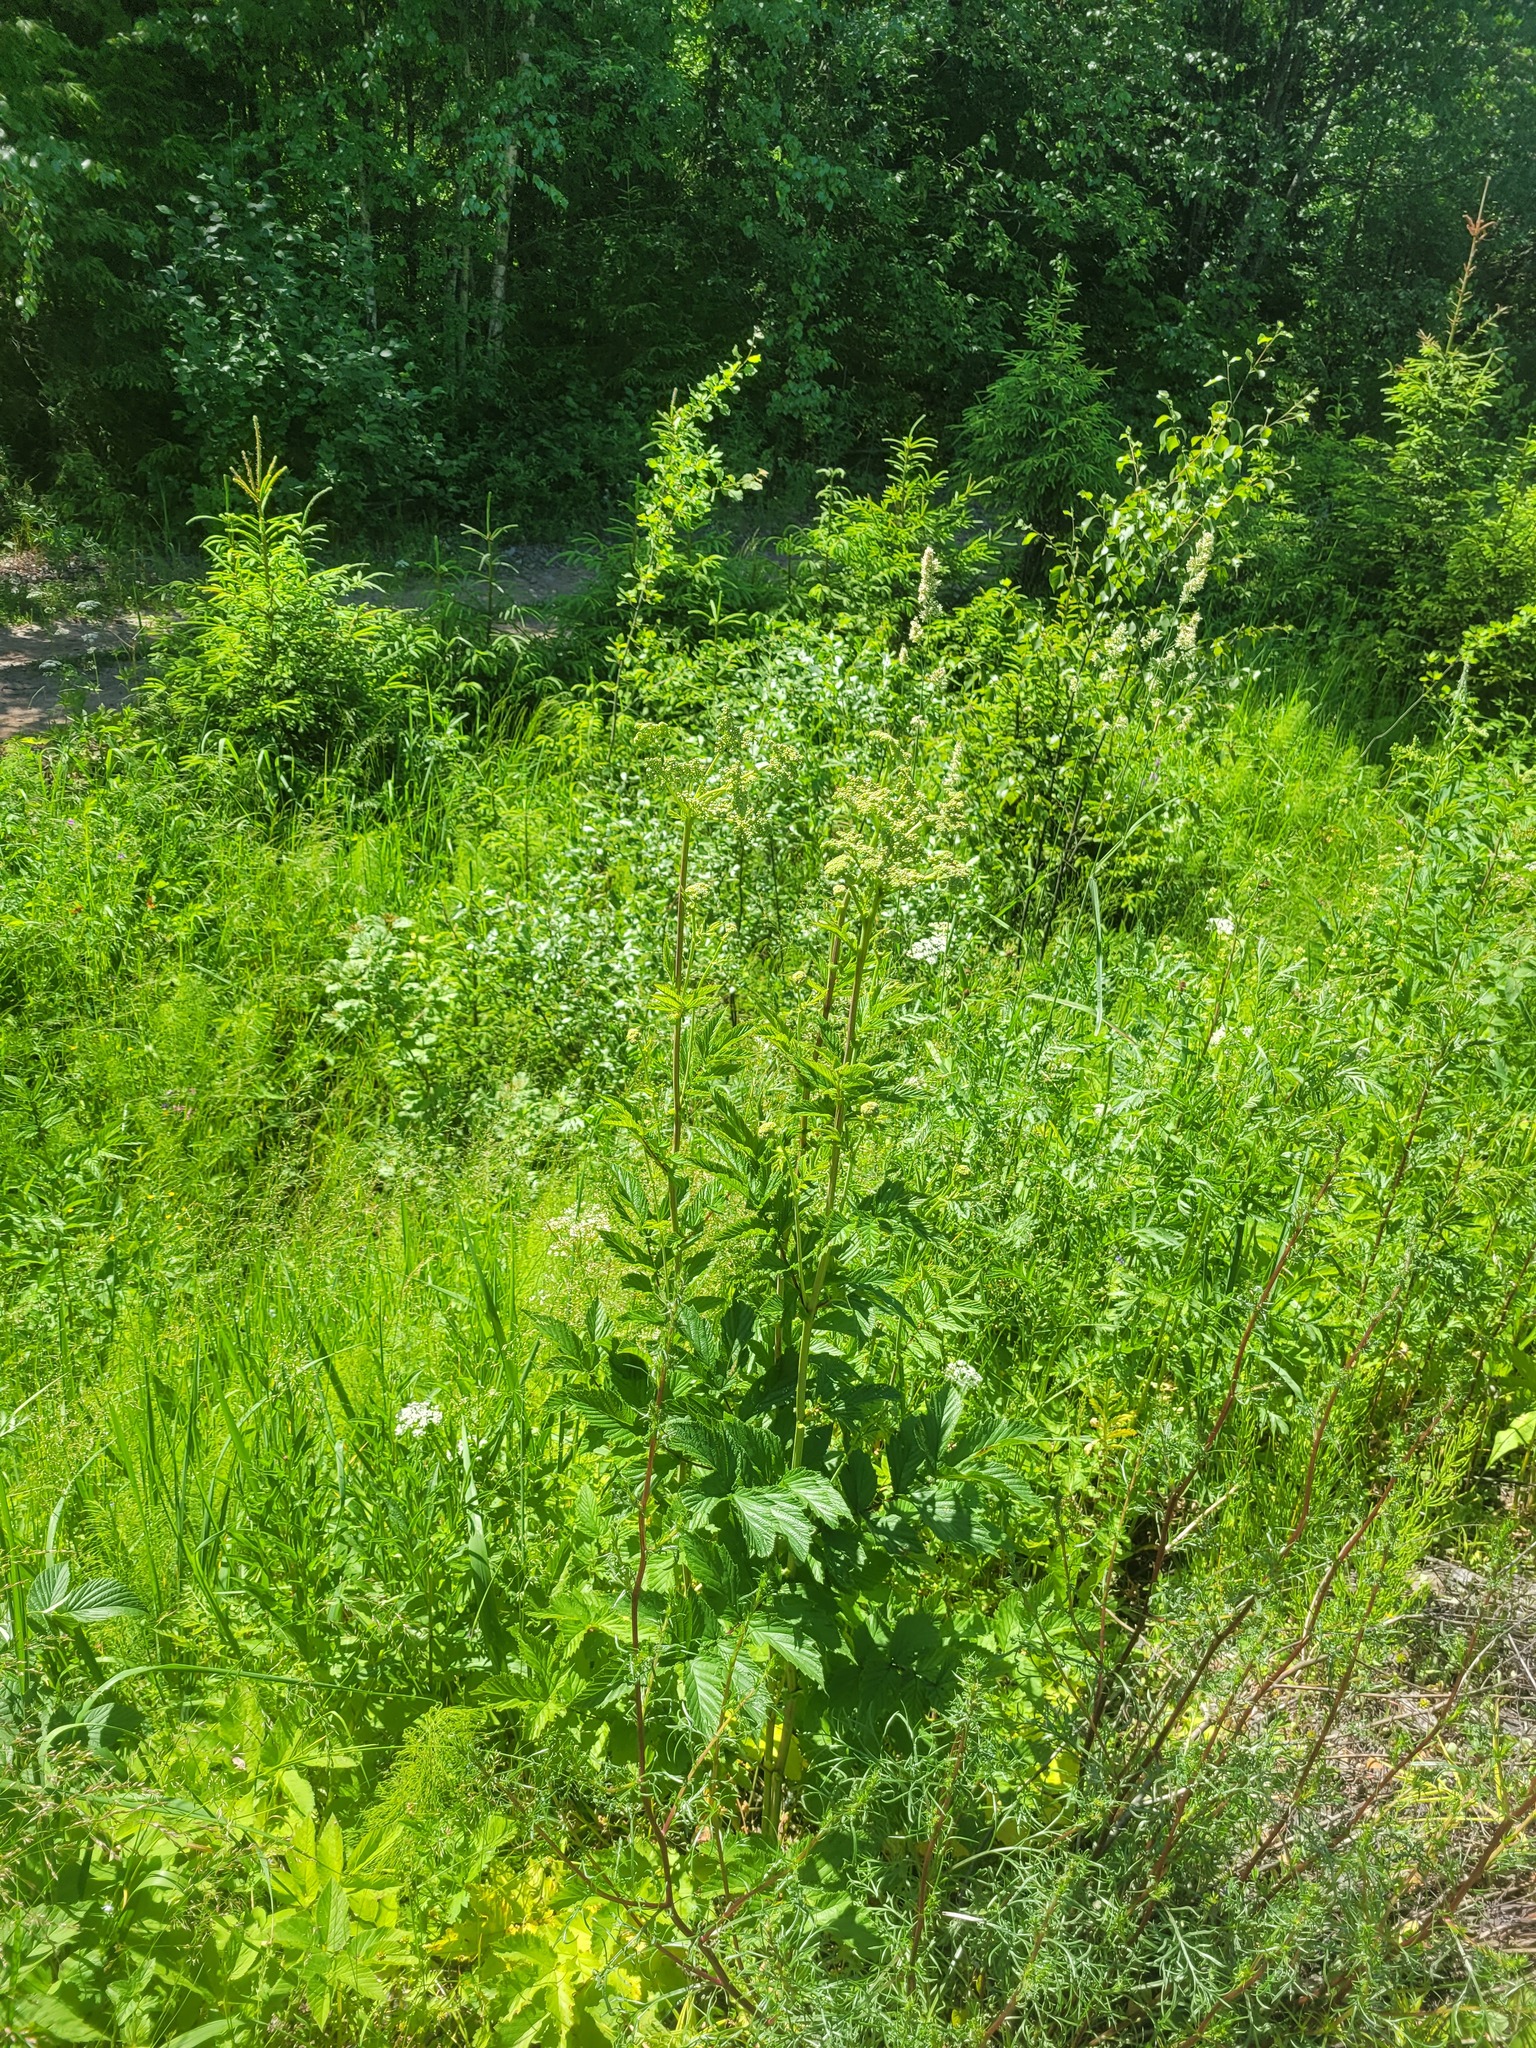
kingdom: Plantae
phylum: Tracheophyta
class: Magnoliopsida
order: Rosales
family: Rosaceae
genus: Filipendula
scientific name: Filipendula ulmaria
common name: Meadowsweet
